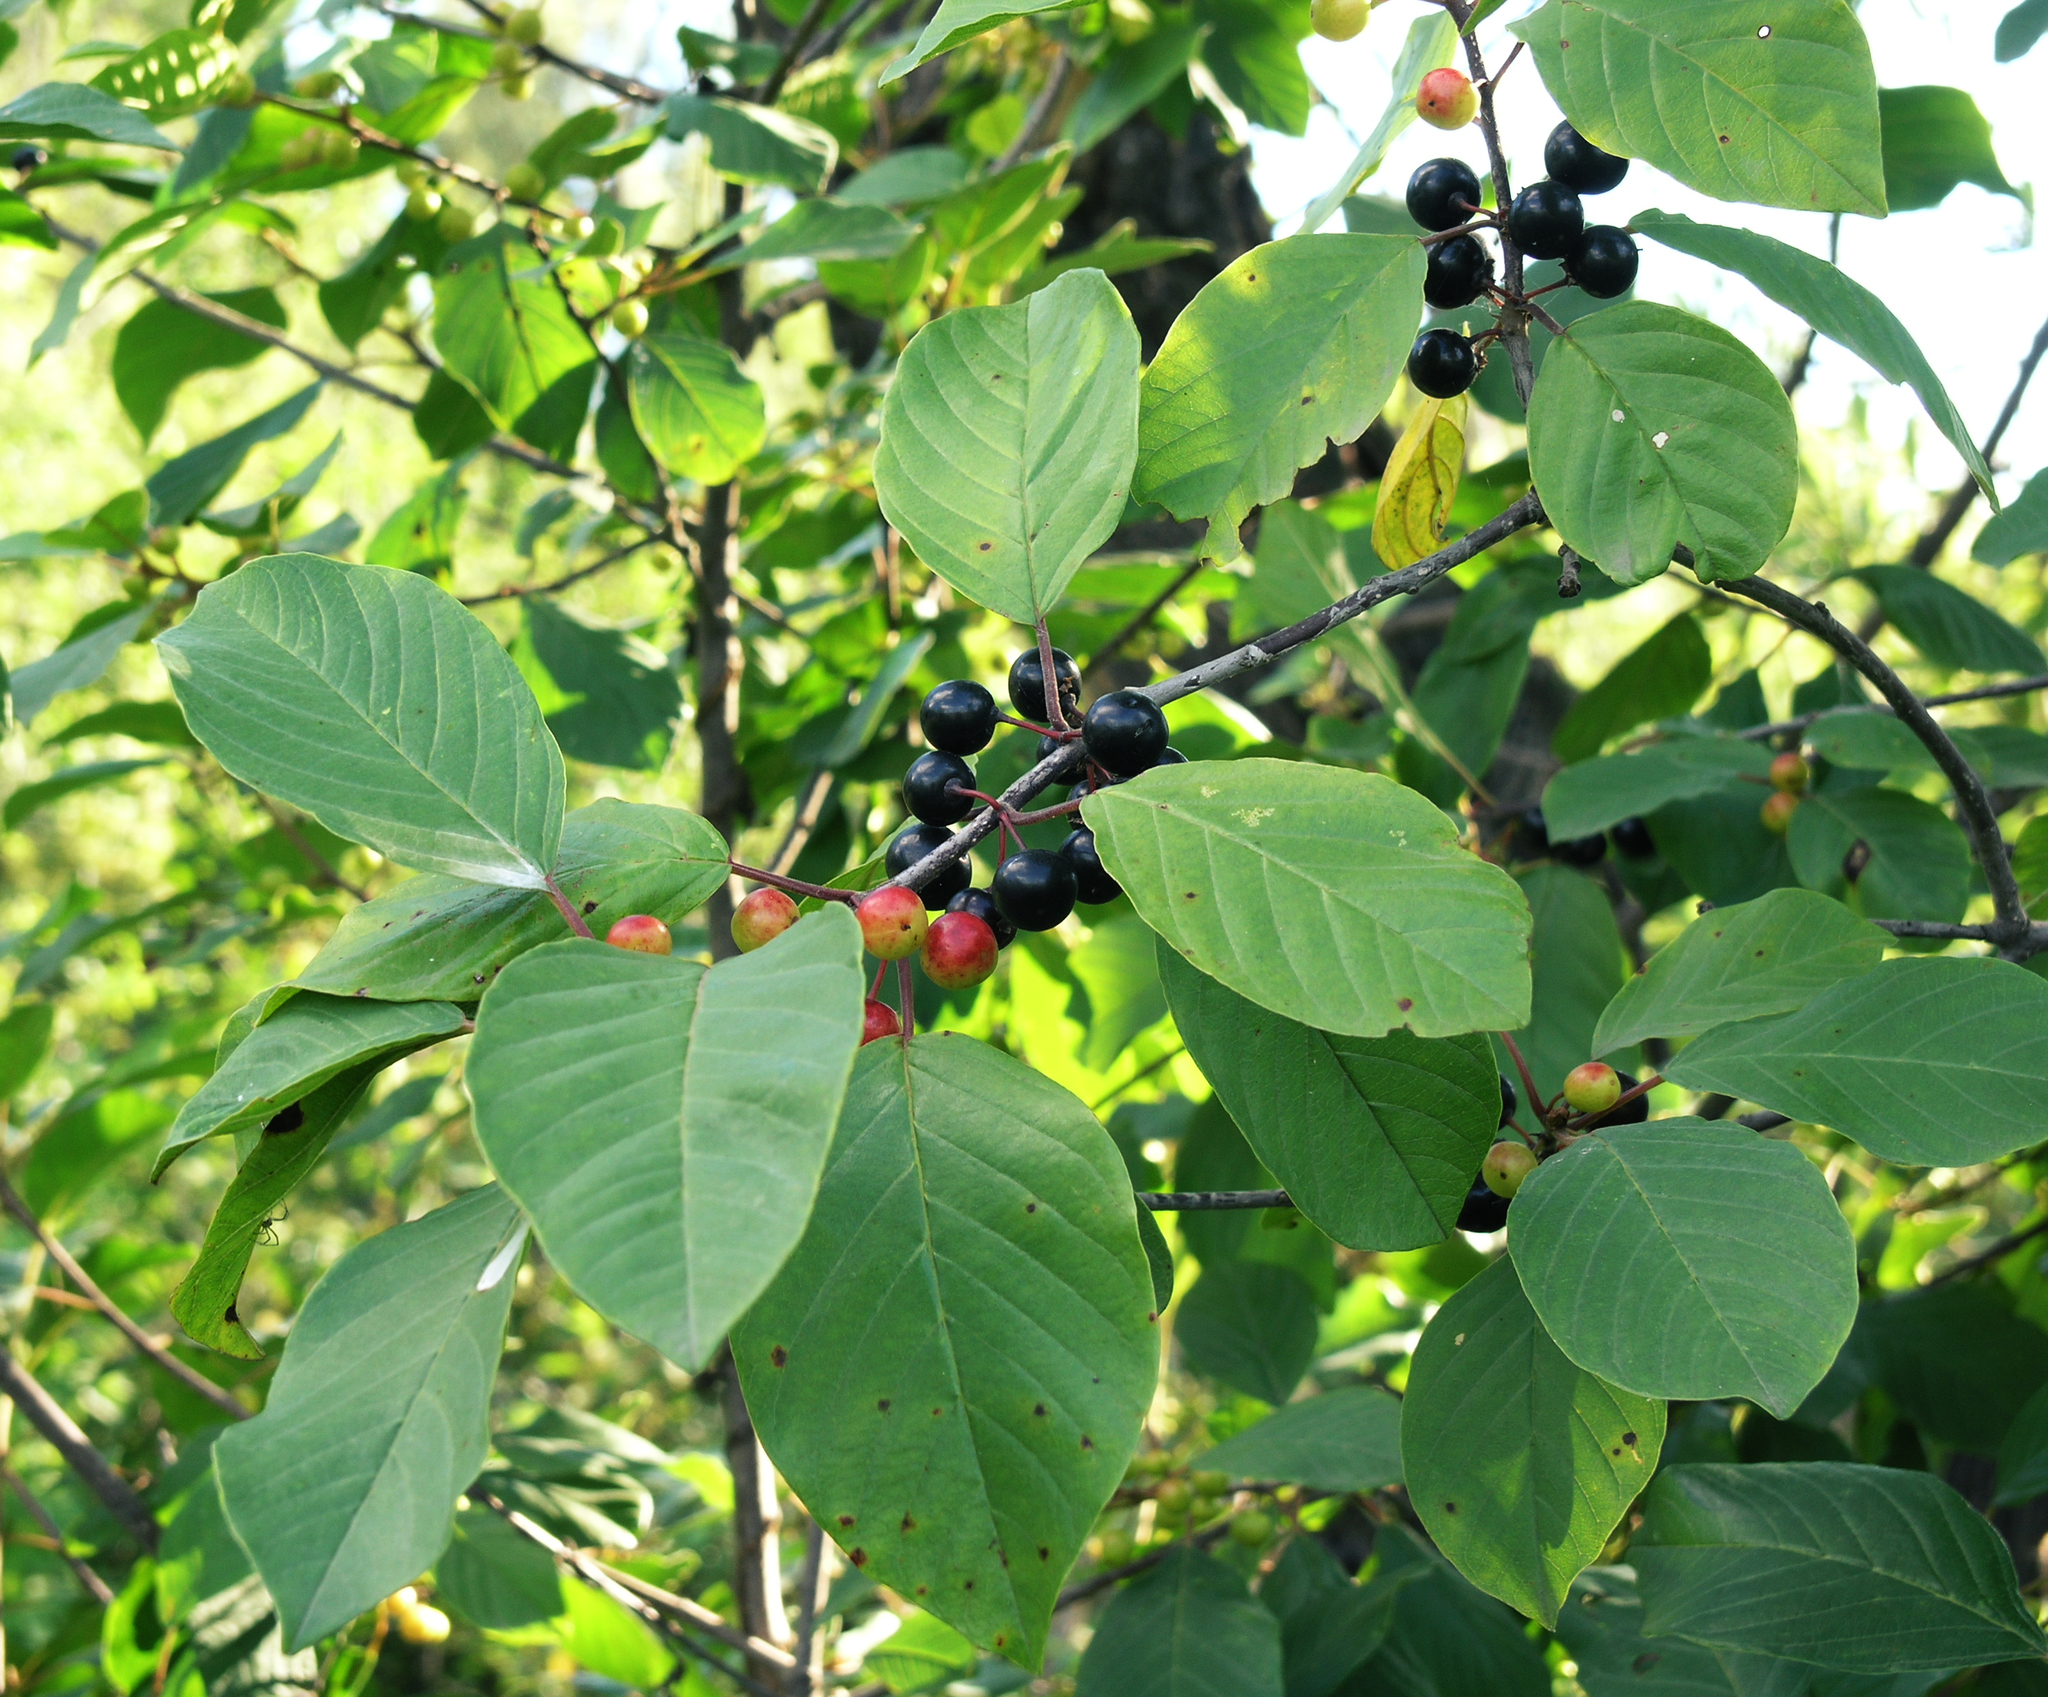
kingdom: Plantae
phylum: Tracheophyta
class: Magnoliopsida
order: Rosales
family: Rhamnaceae
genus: Frangula
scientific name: Frangula alnus
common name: Alder buckthorn
